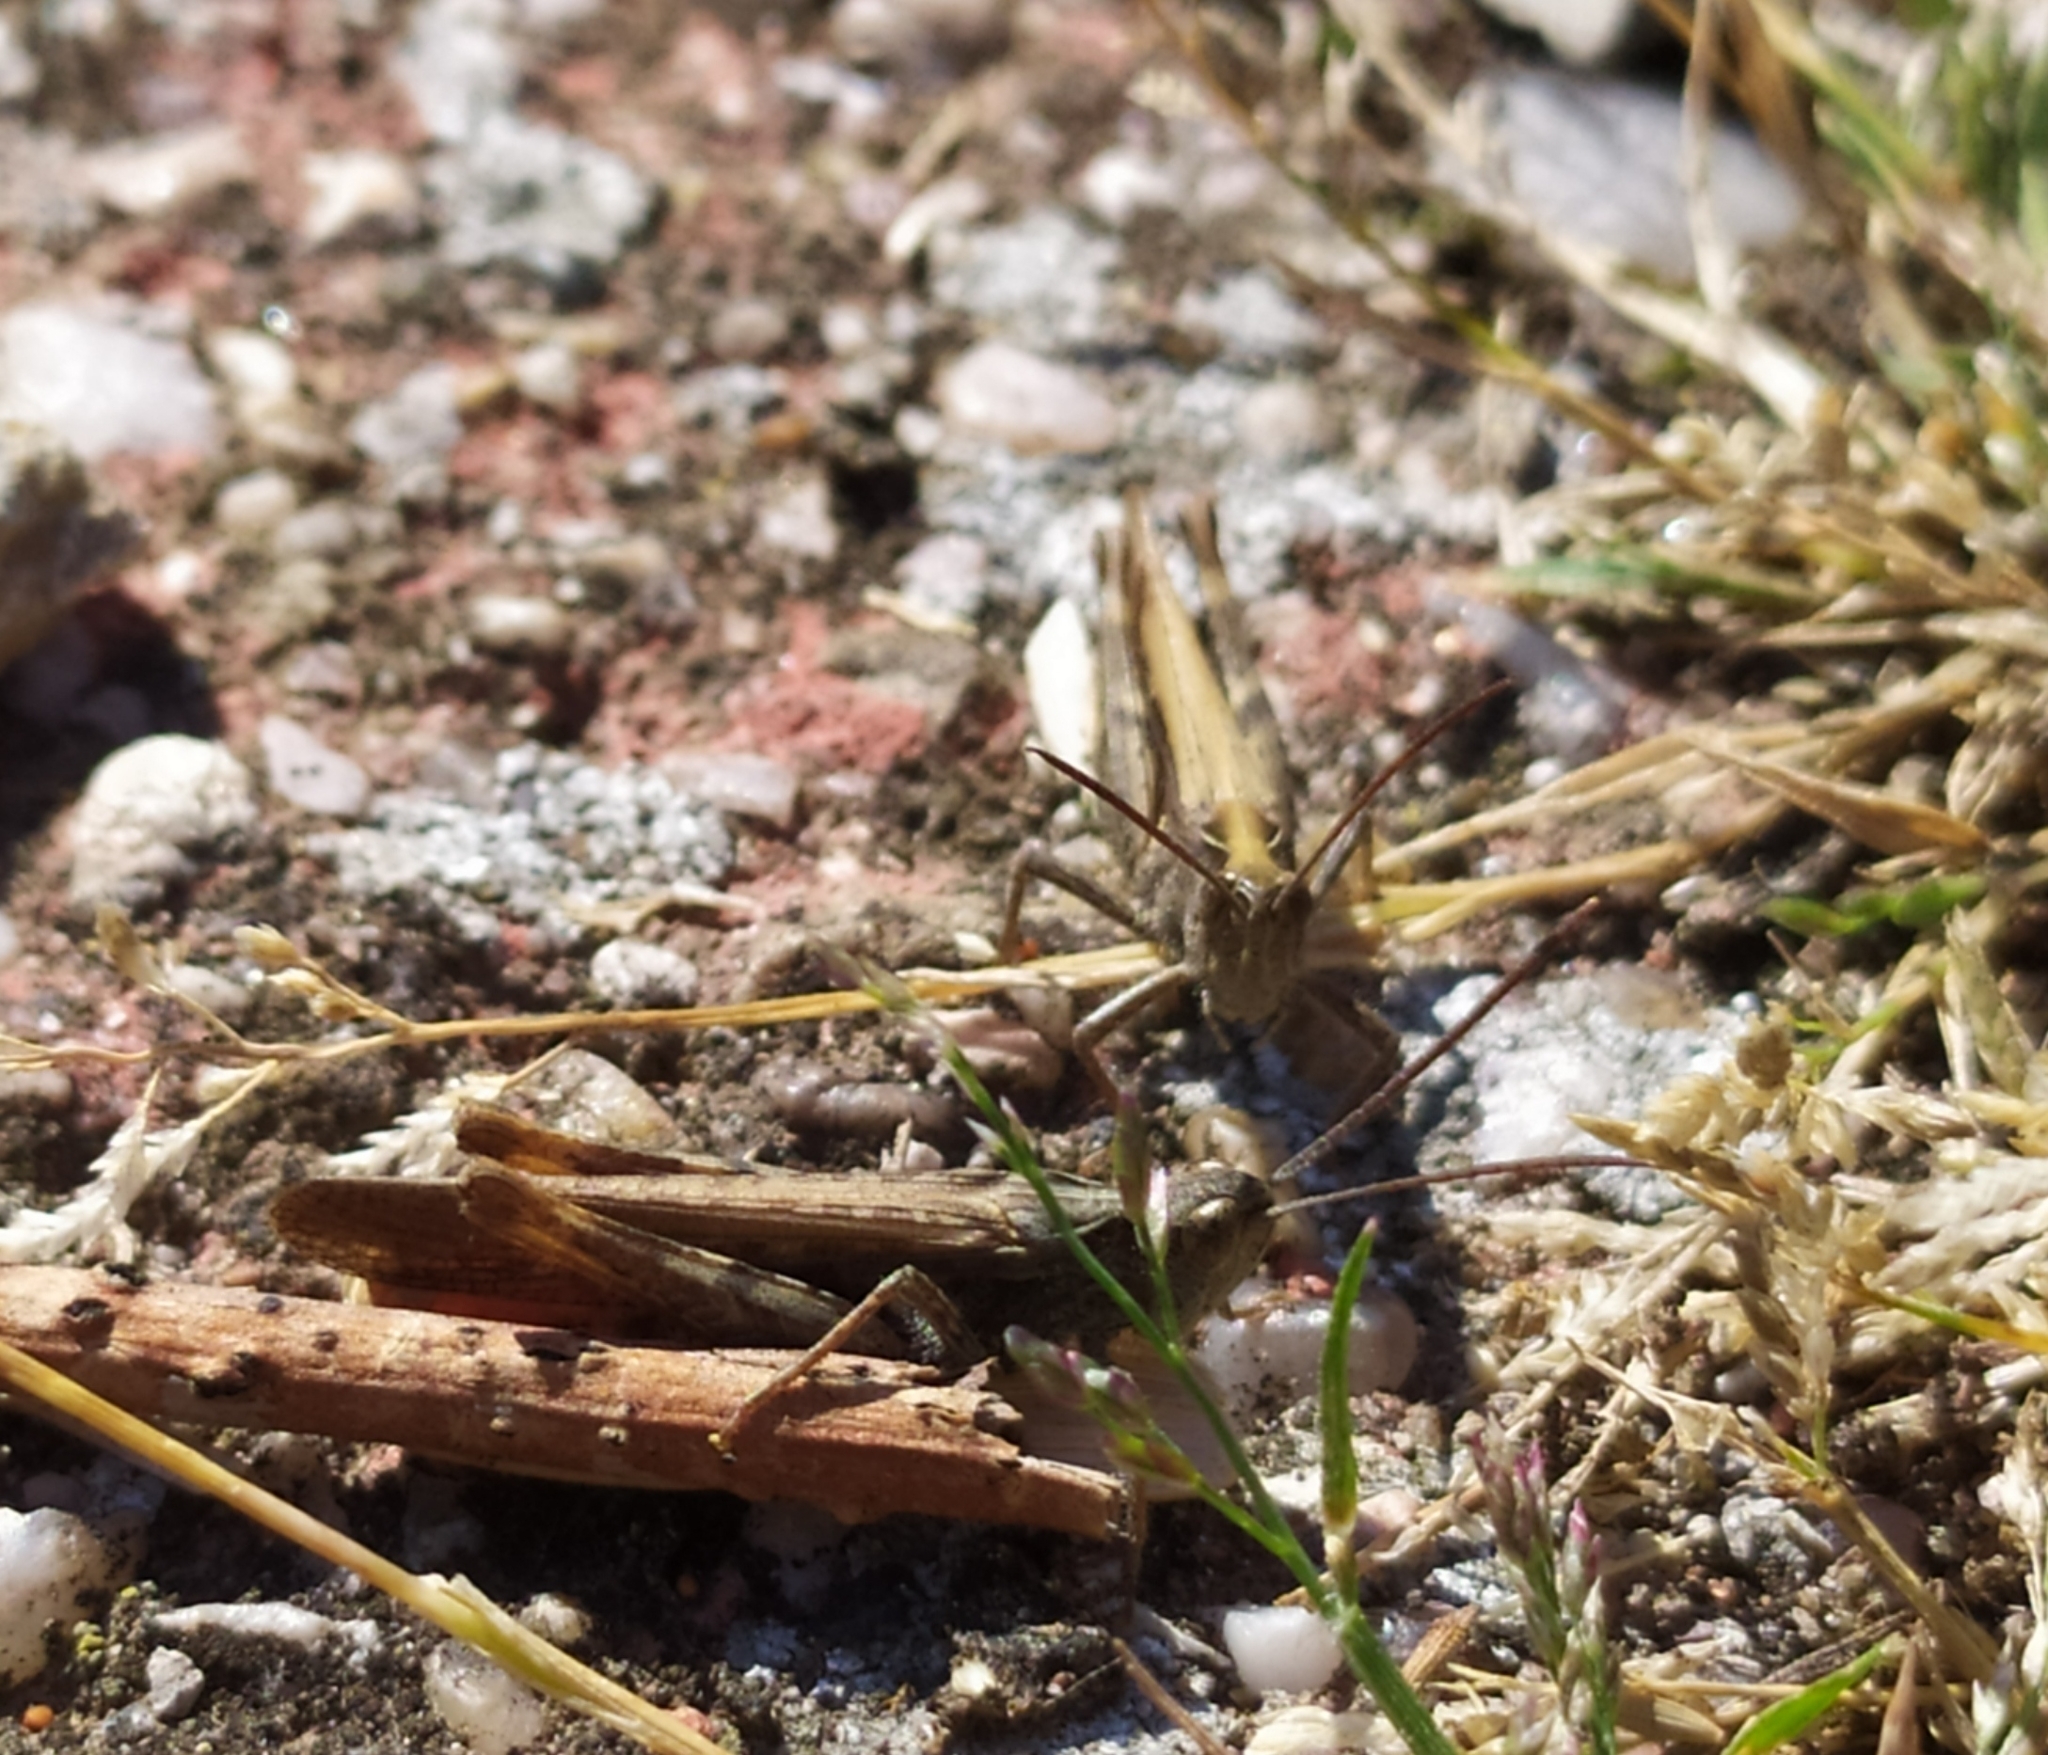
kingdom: Animalia
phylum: Arthropoda
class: Insecta
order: Orthoptera
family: Acrididae
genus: Chorthippus
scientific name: Chorthippus brunneus
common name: Field grasshopper
